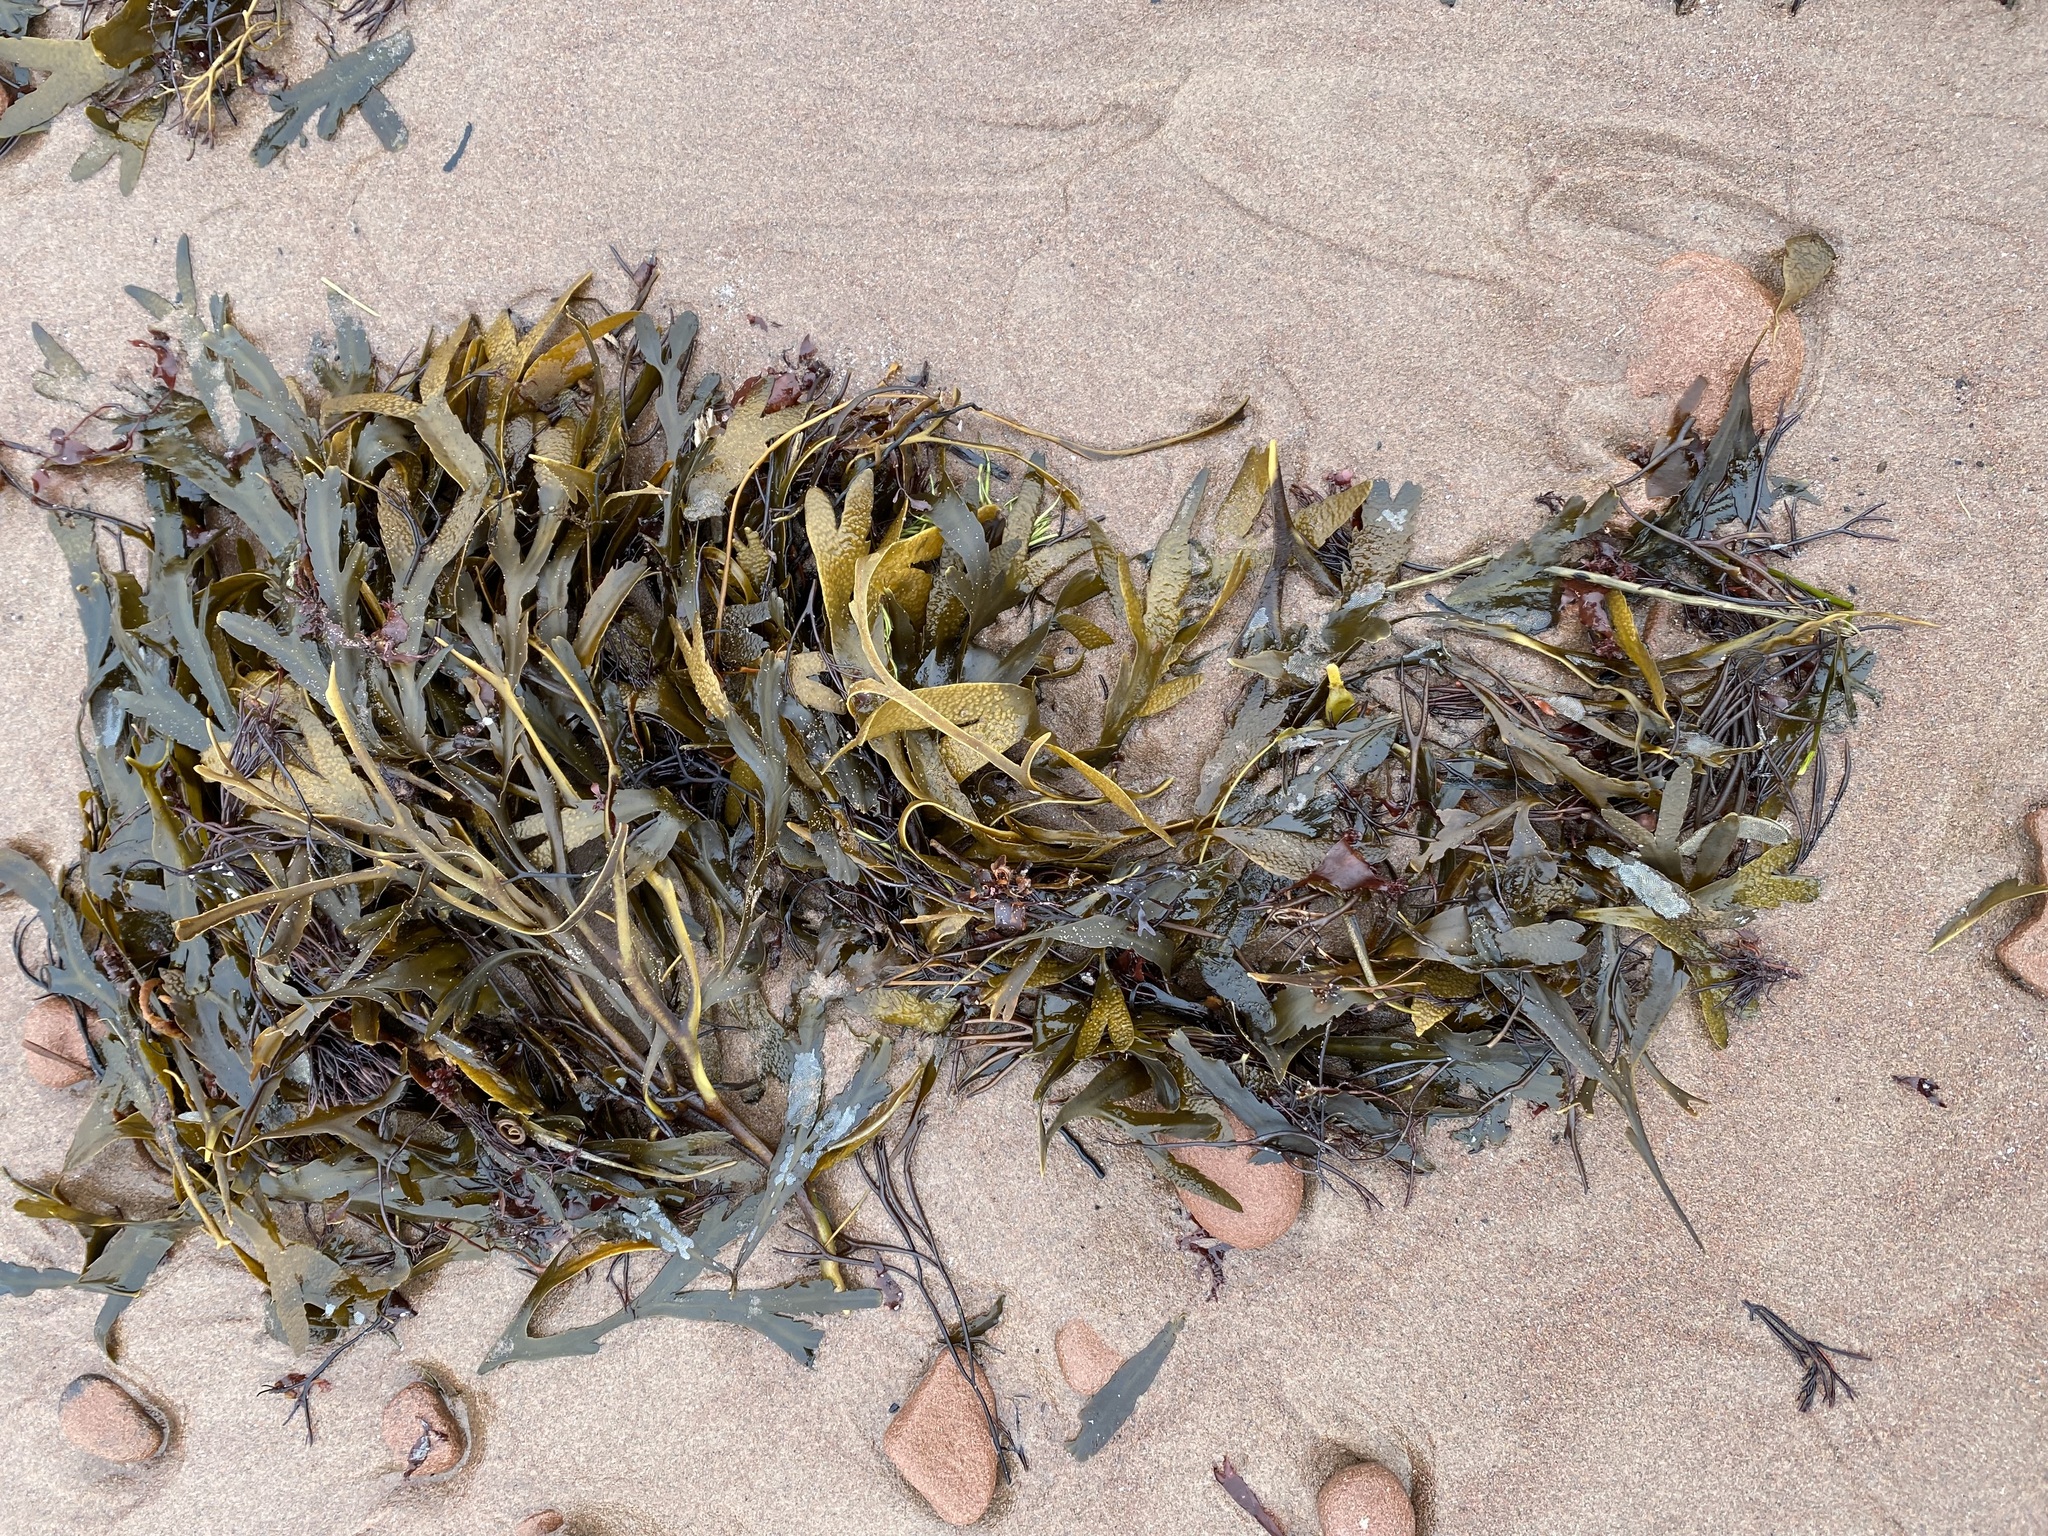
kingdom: Chromista
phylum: Ochrophyta
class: Phaeophyceae
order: Fucales
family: Fucaceae
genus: Fucus
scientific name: Fucus serratus
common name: Toothed wrack
